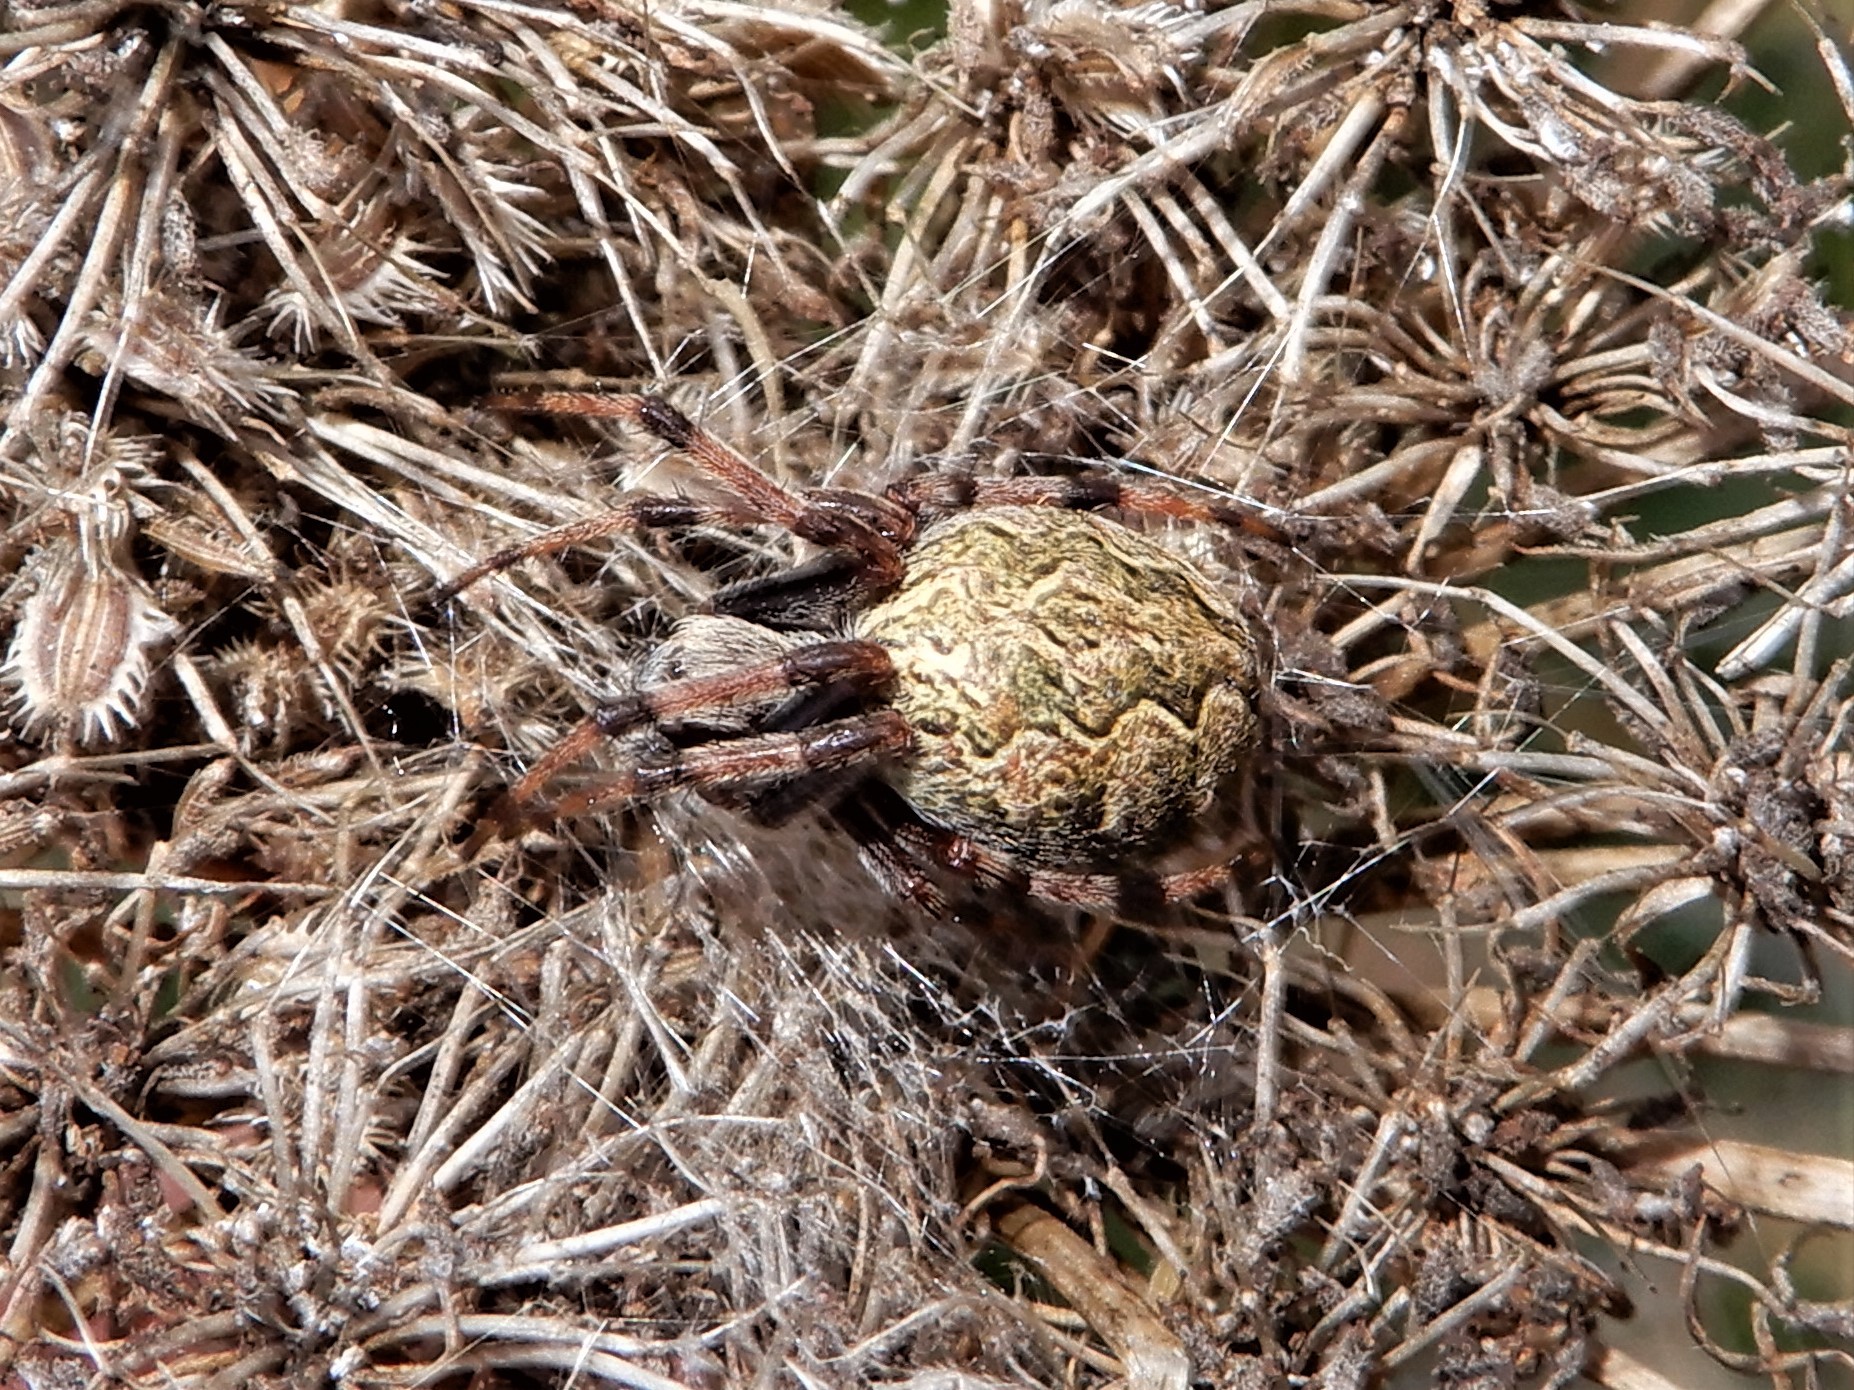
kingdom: Animalia
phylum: Arthropoda
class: Arachnida
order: Araneae
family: Araneidae
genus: Salsa
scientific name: Salsa fuliginata
